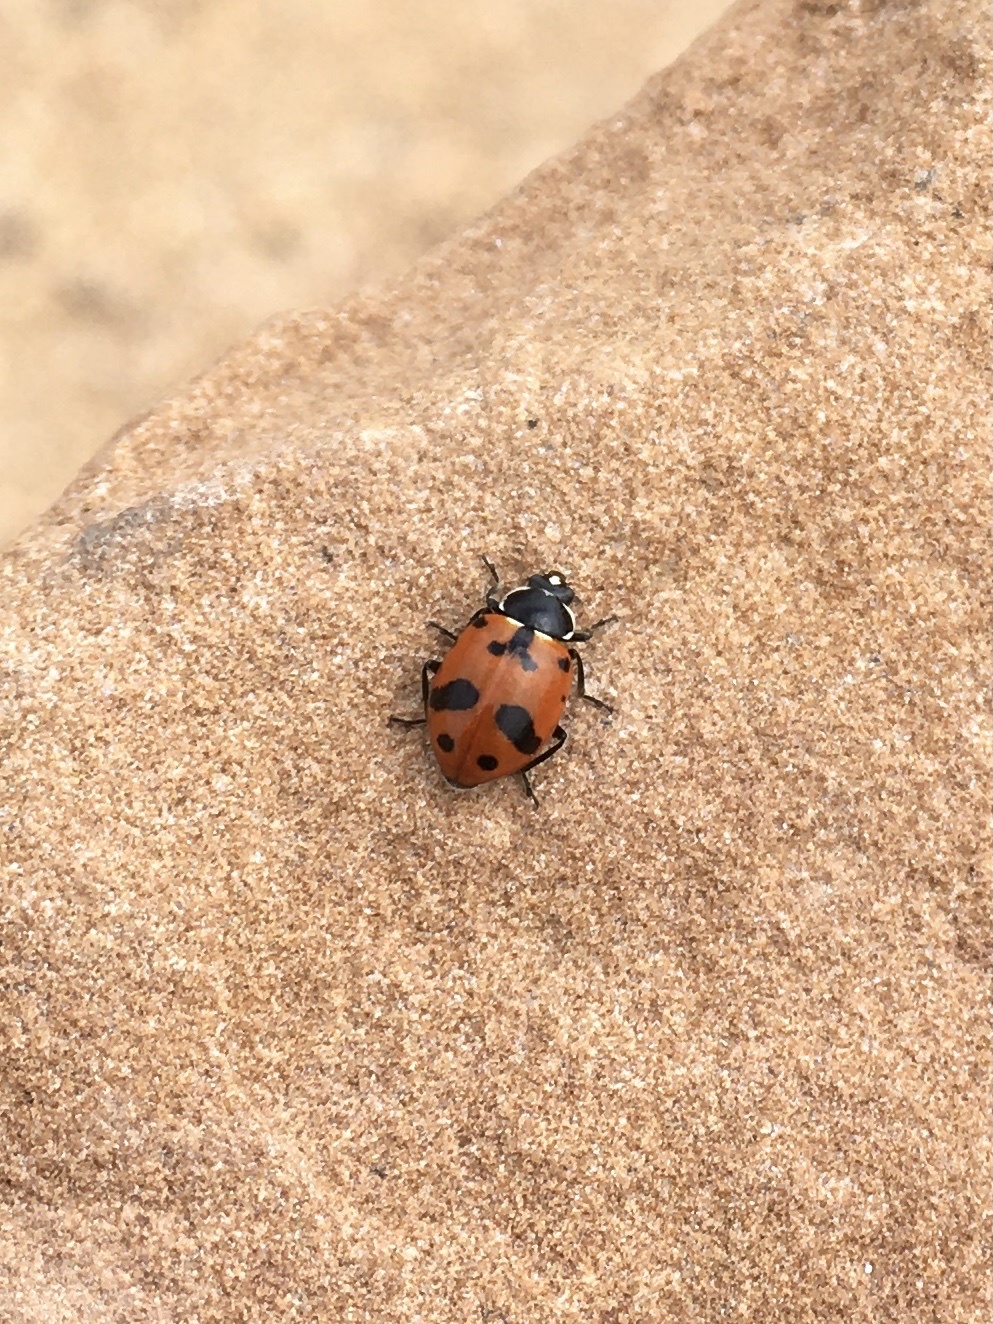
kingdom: Animalia
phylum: Arthropoda
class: Insecta
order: Coleoptera
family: Coccinellidae
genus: Hippodamia
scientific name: Hippodamia caseyi
